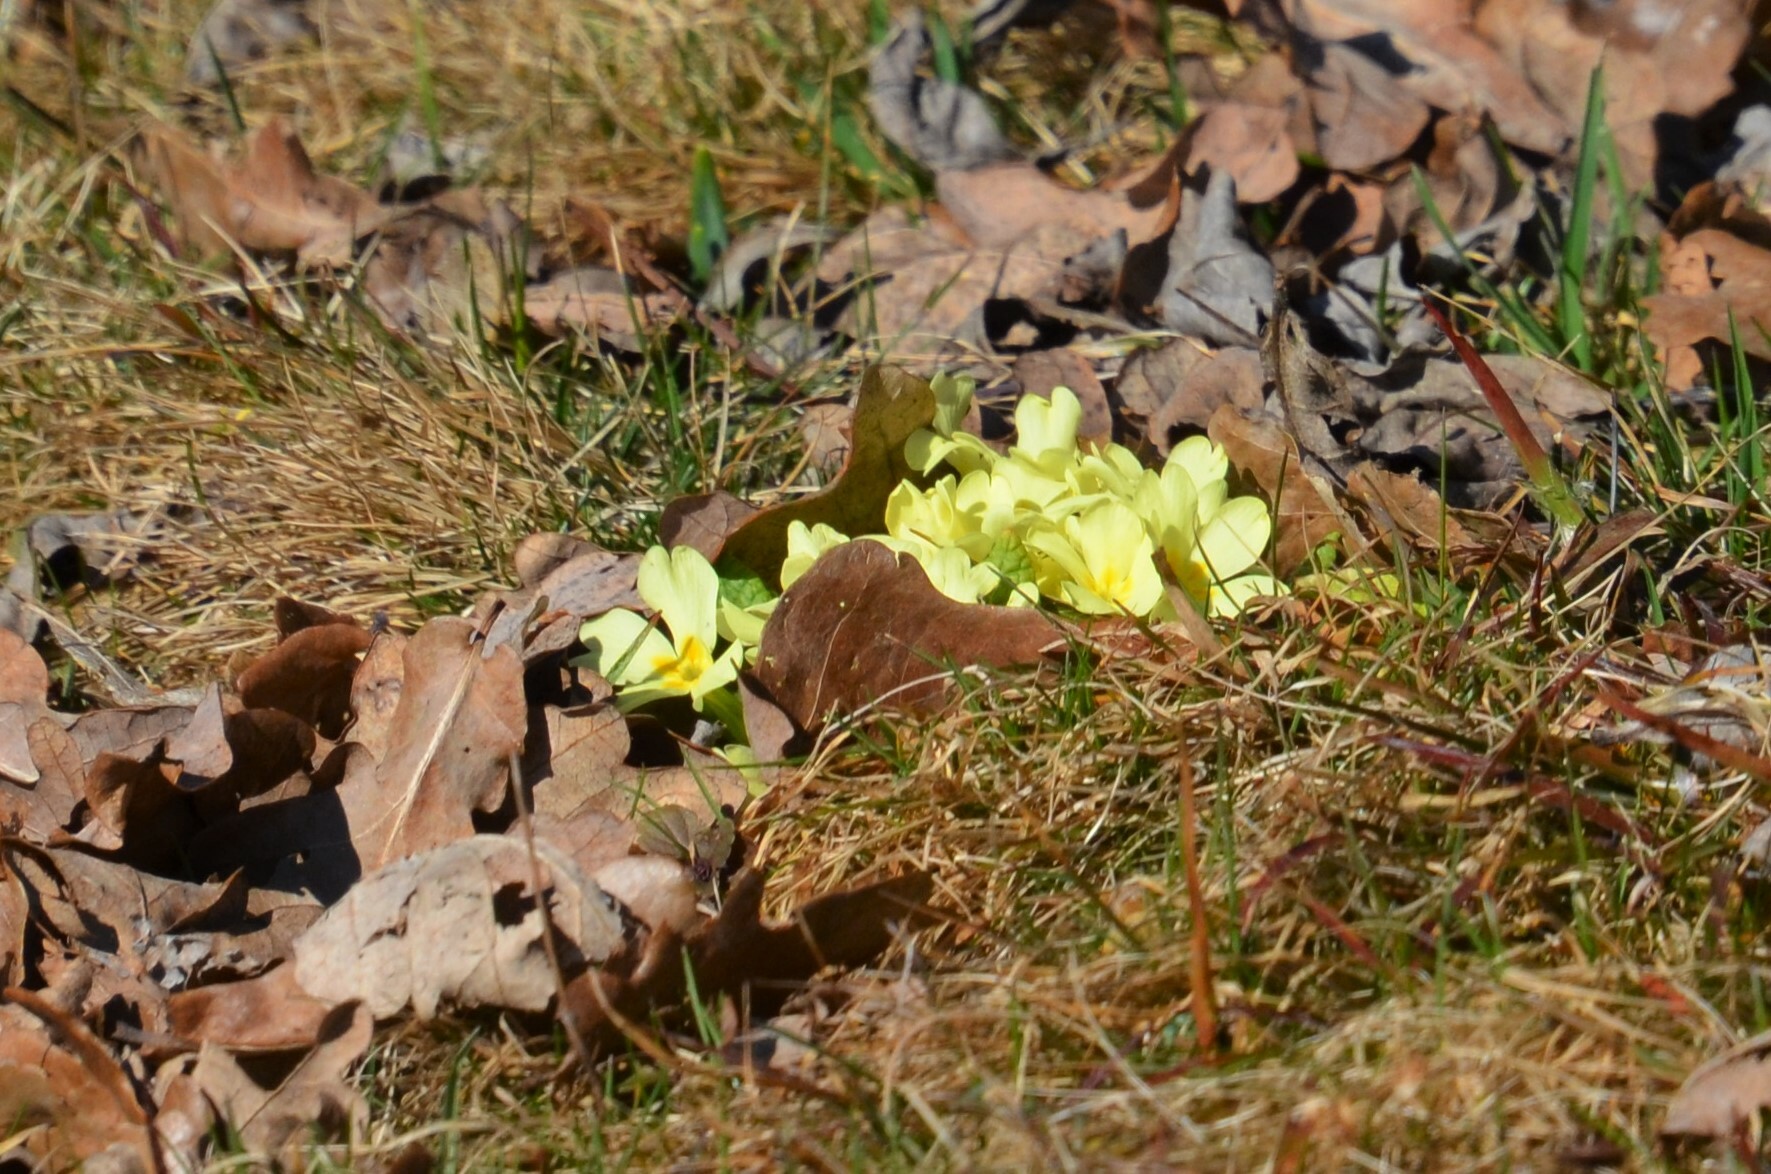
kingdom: Plantae
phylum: Tracheophyta
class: Magnoliopsida
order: Ericales
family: Primulaceae
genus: Primula
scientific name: Primula vulgaris
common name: Primrose
